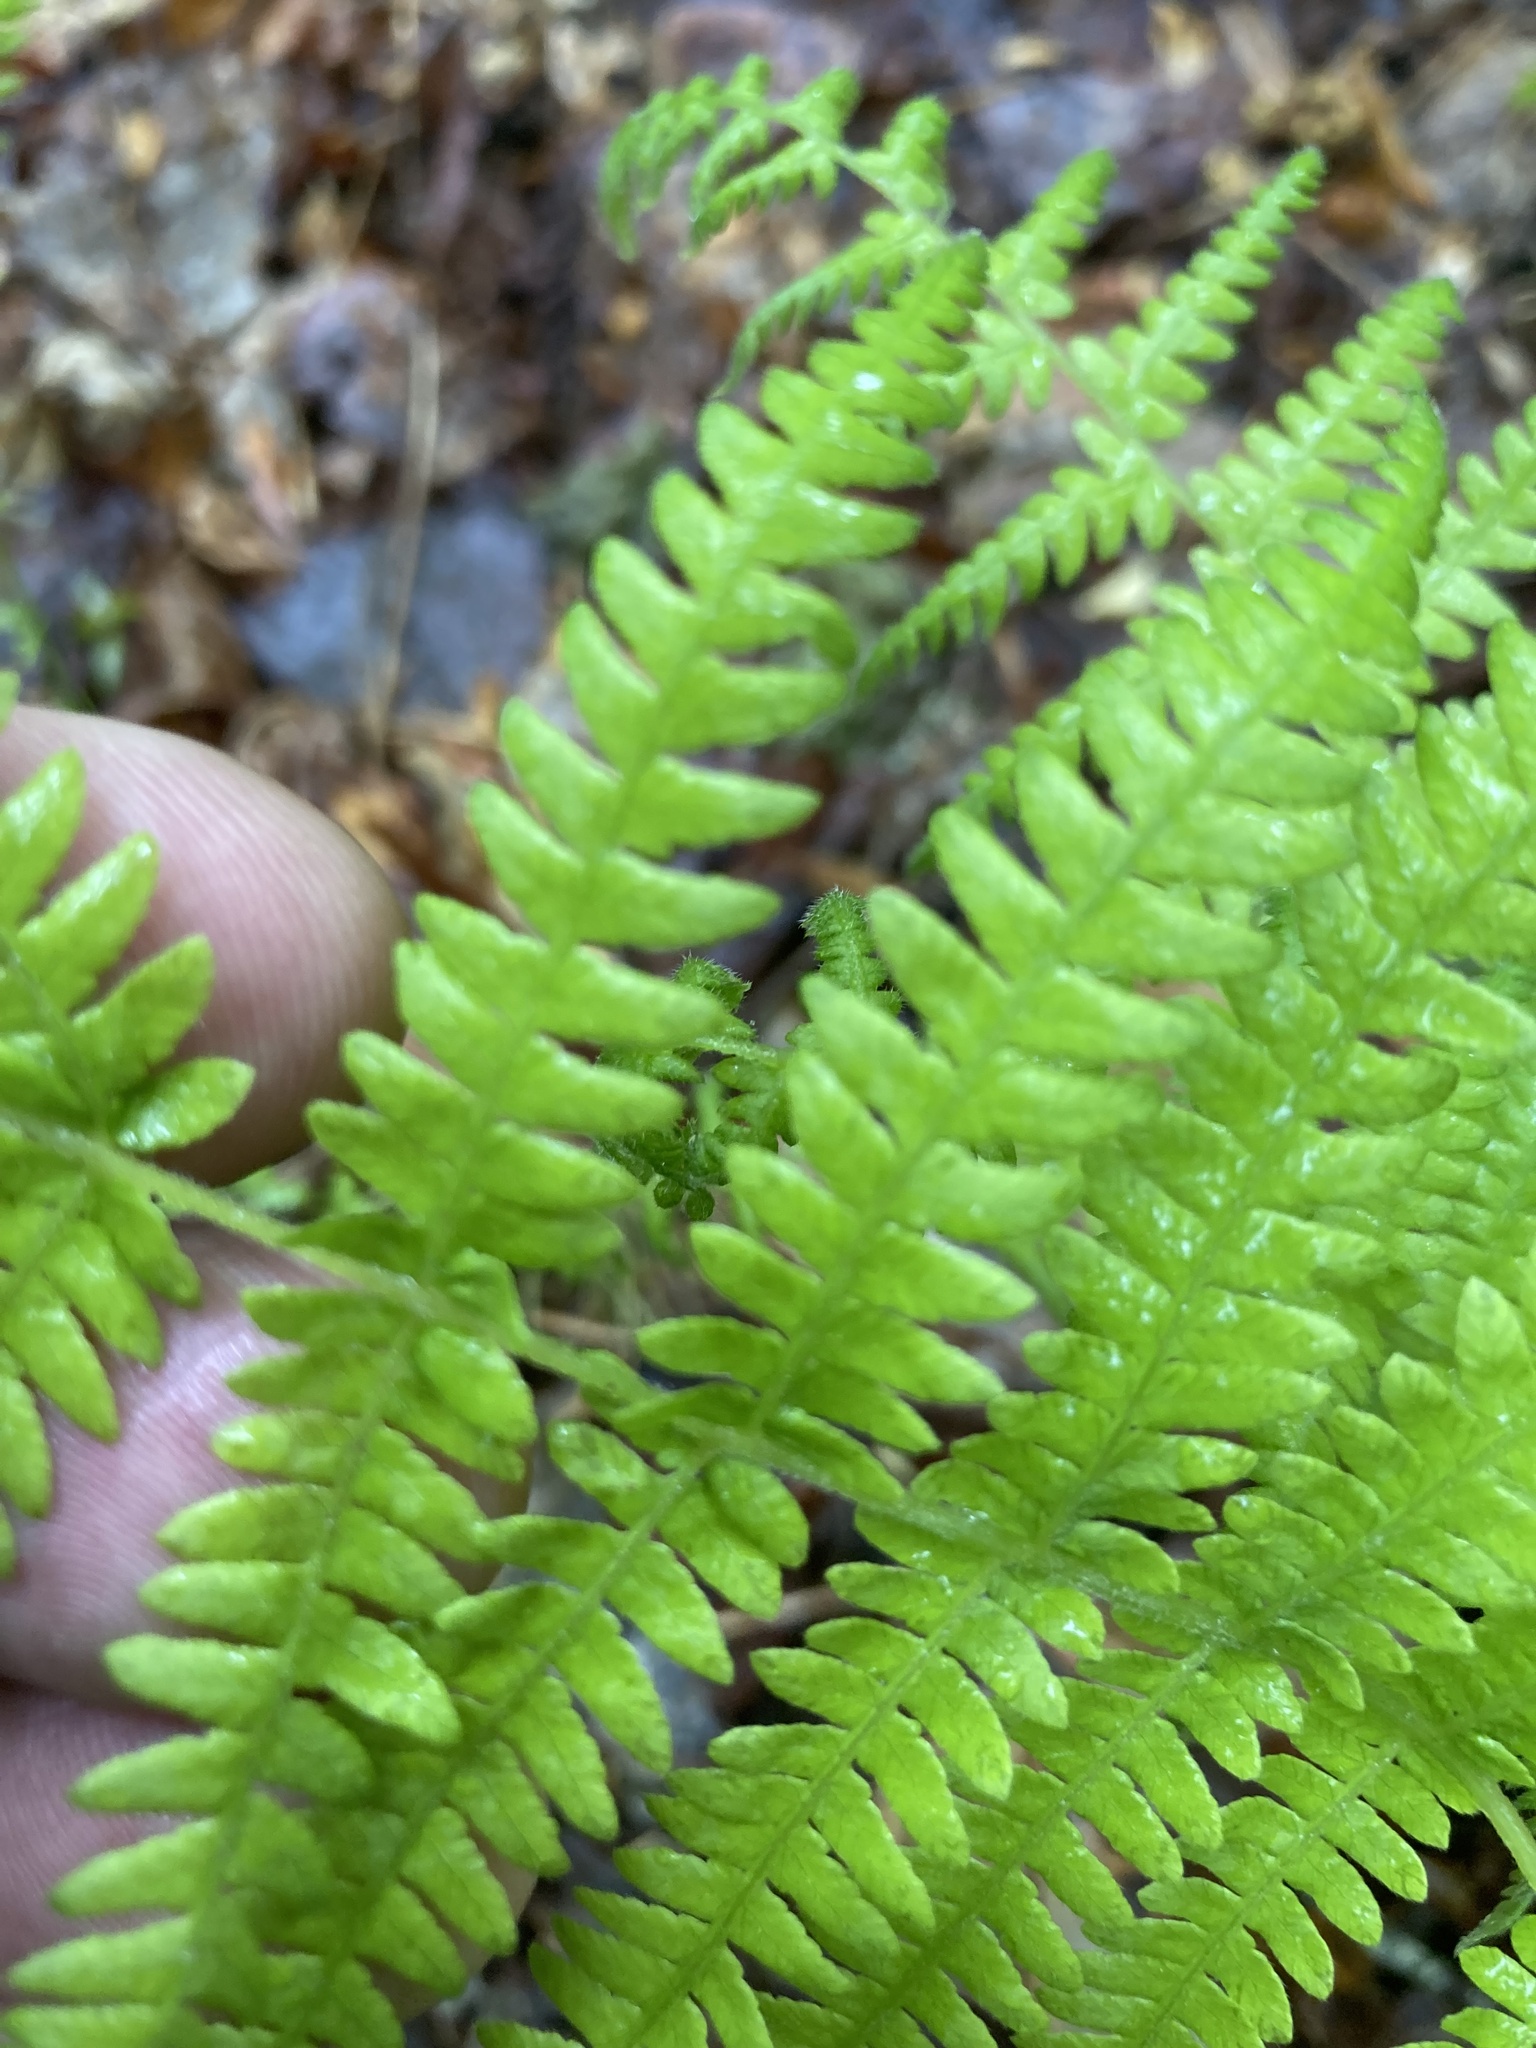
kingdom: Plantae
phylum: Tracheophyta
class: Polypodiopsida
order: Polypodiales
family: Thelypteridaceae
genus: Amauropelta
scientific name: Amauropelta noveboracensis
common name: New york fern
